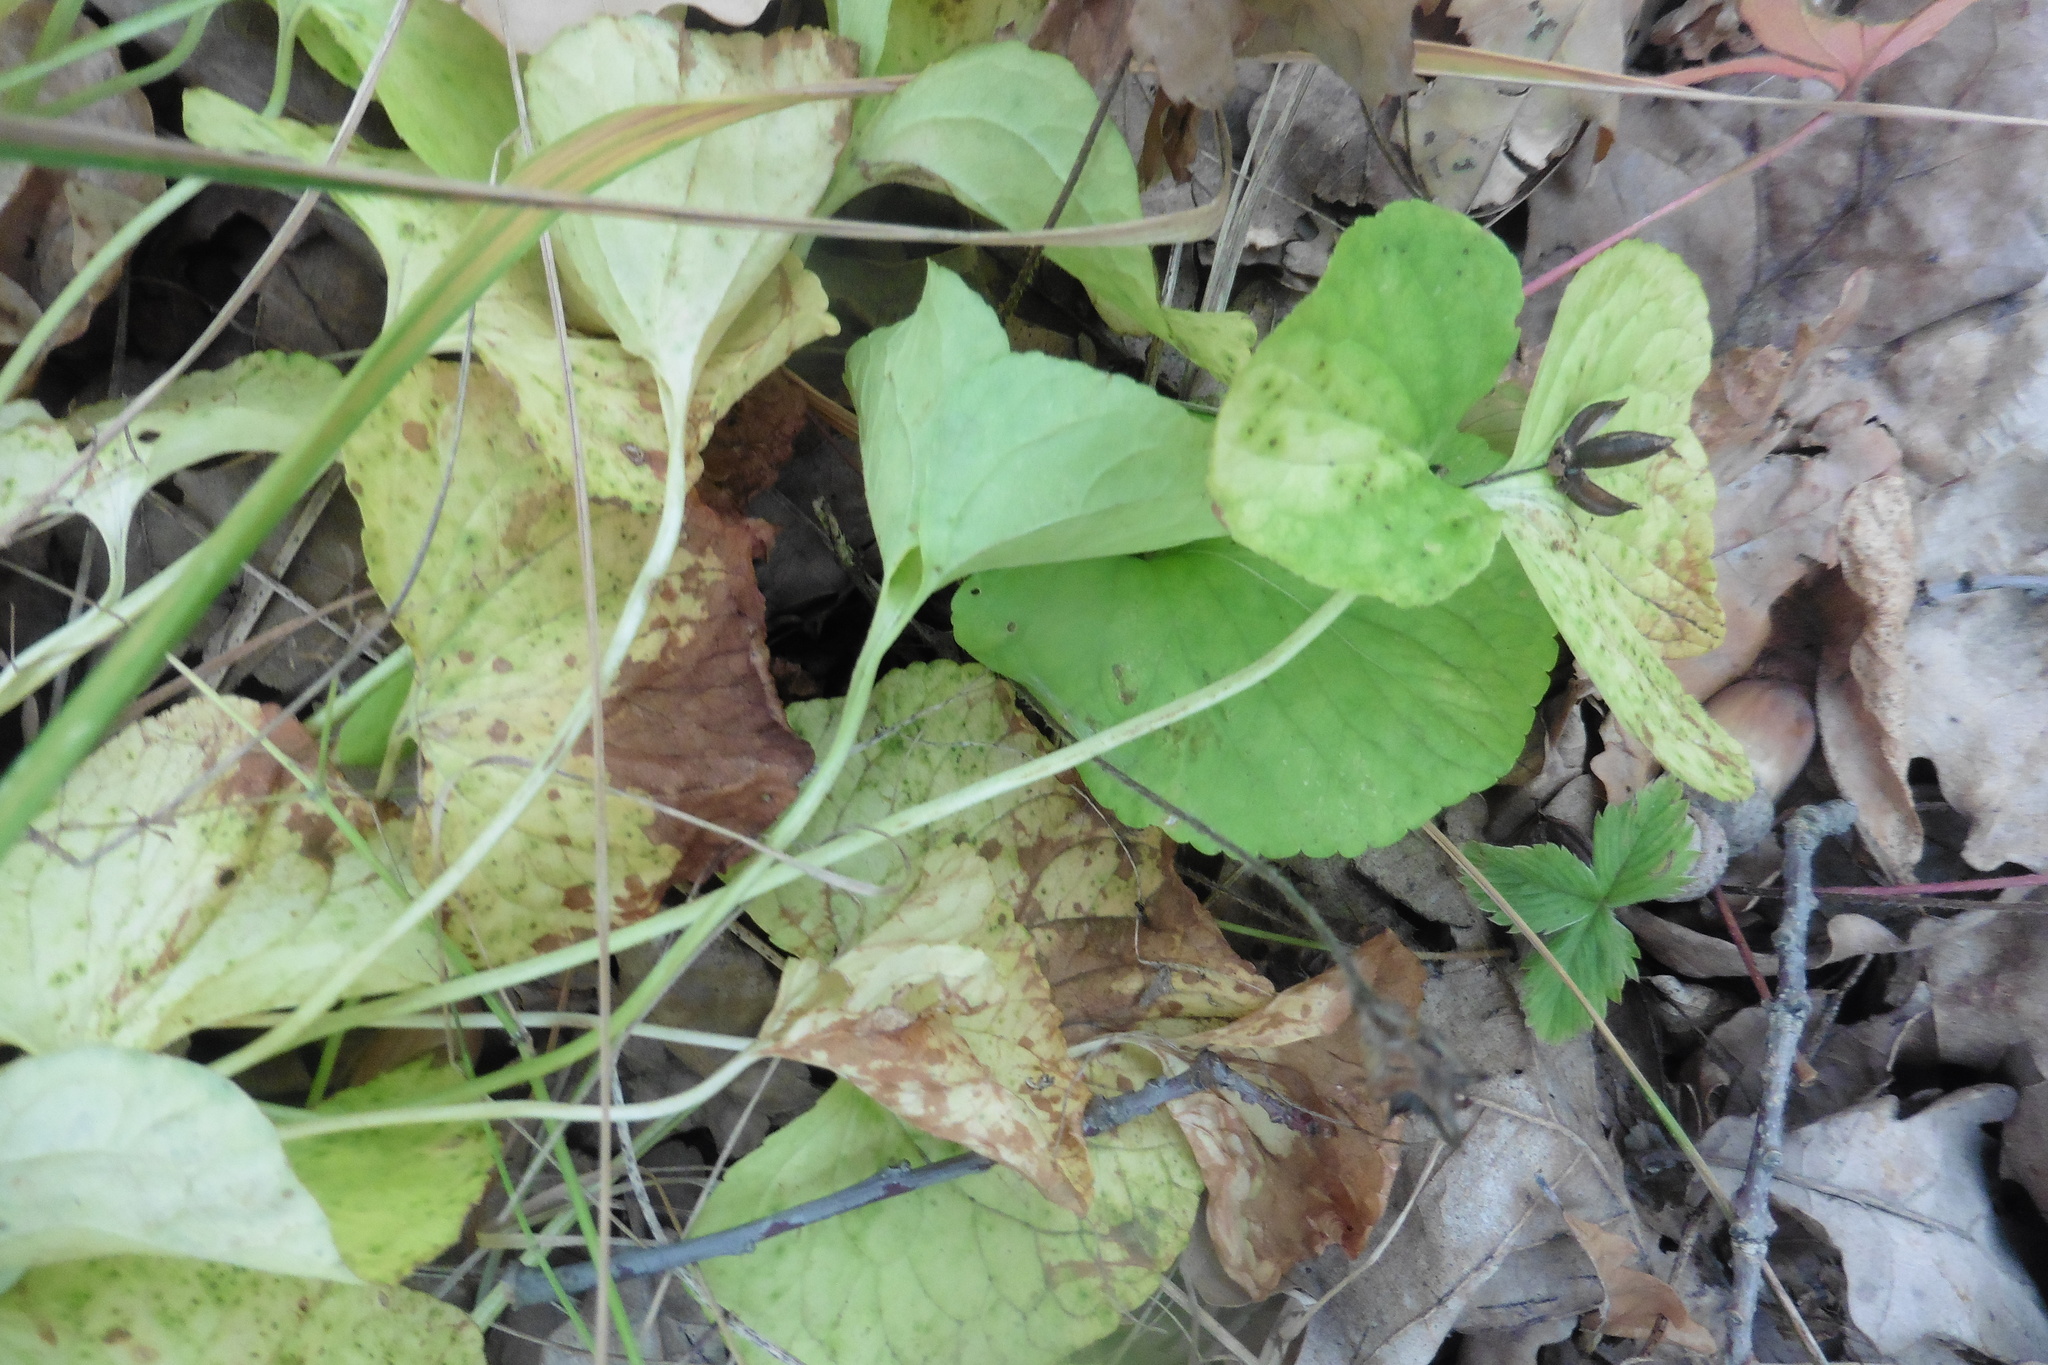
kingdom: Plantae
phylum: Tracheophyta
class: Magnoliopsida
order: Malpighiales
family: Violaceae
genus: Viola
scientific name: Viola mirabilis
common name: Wonder violet
